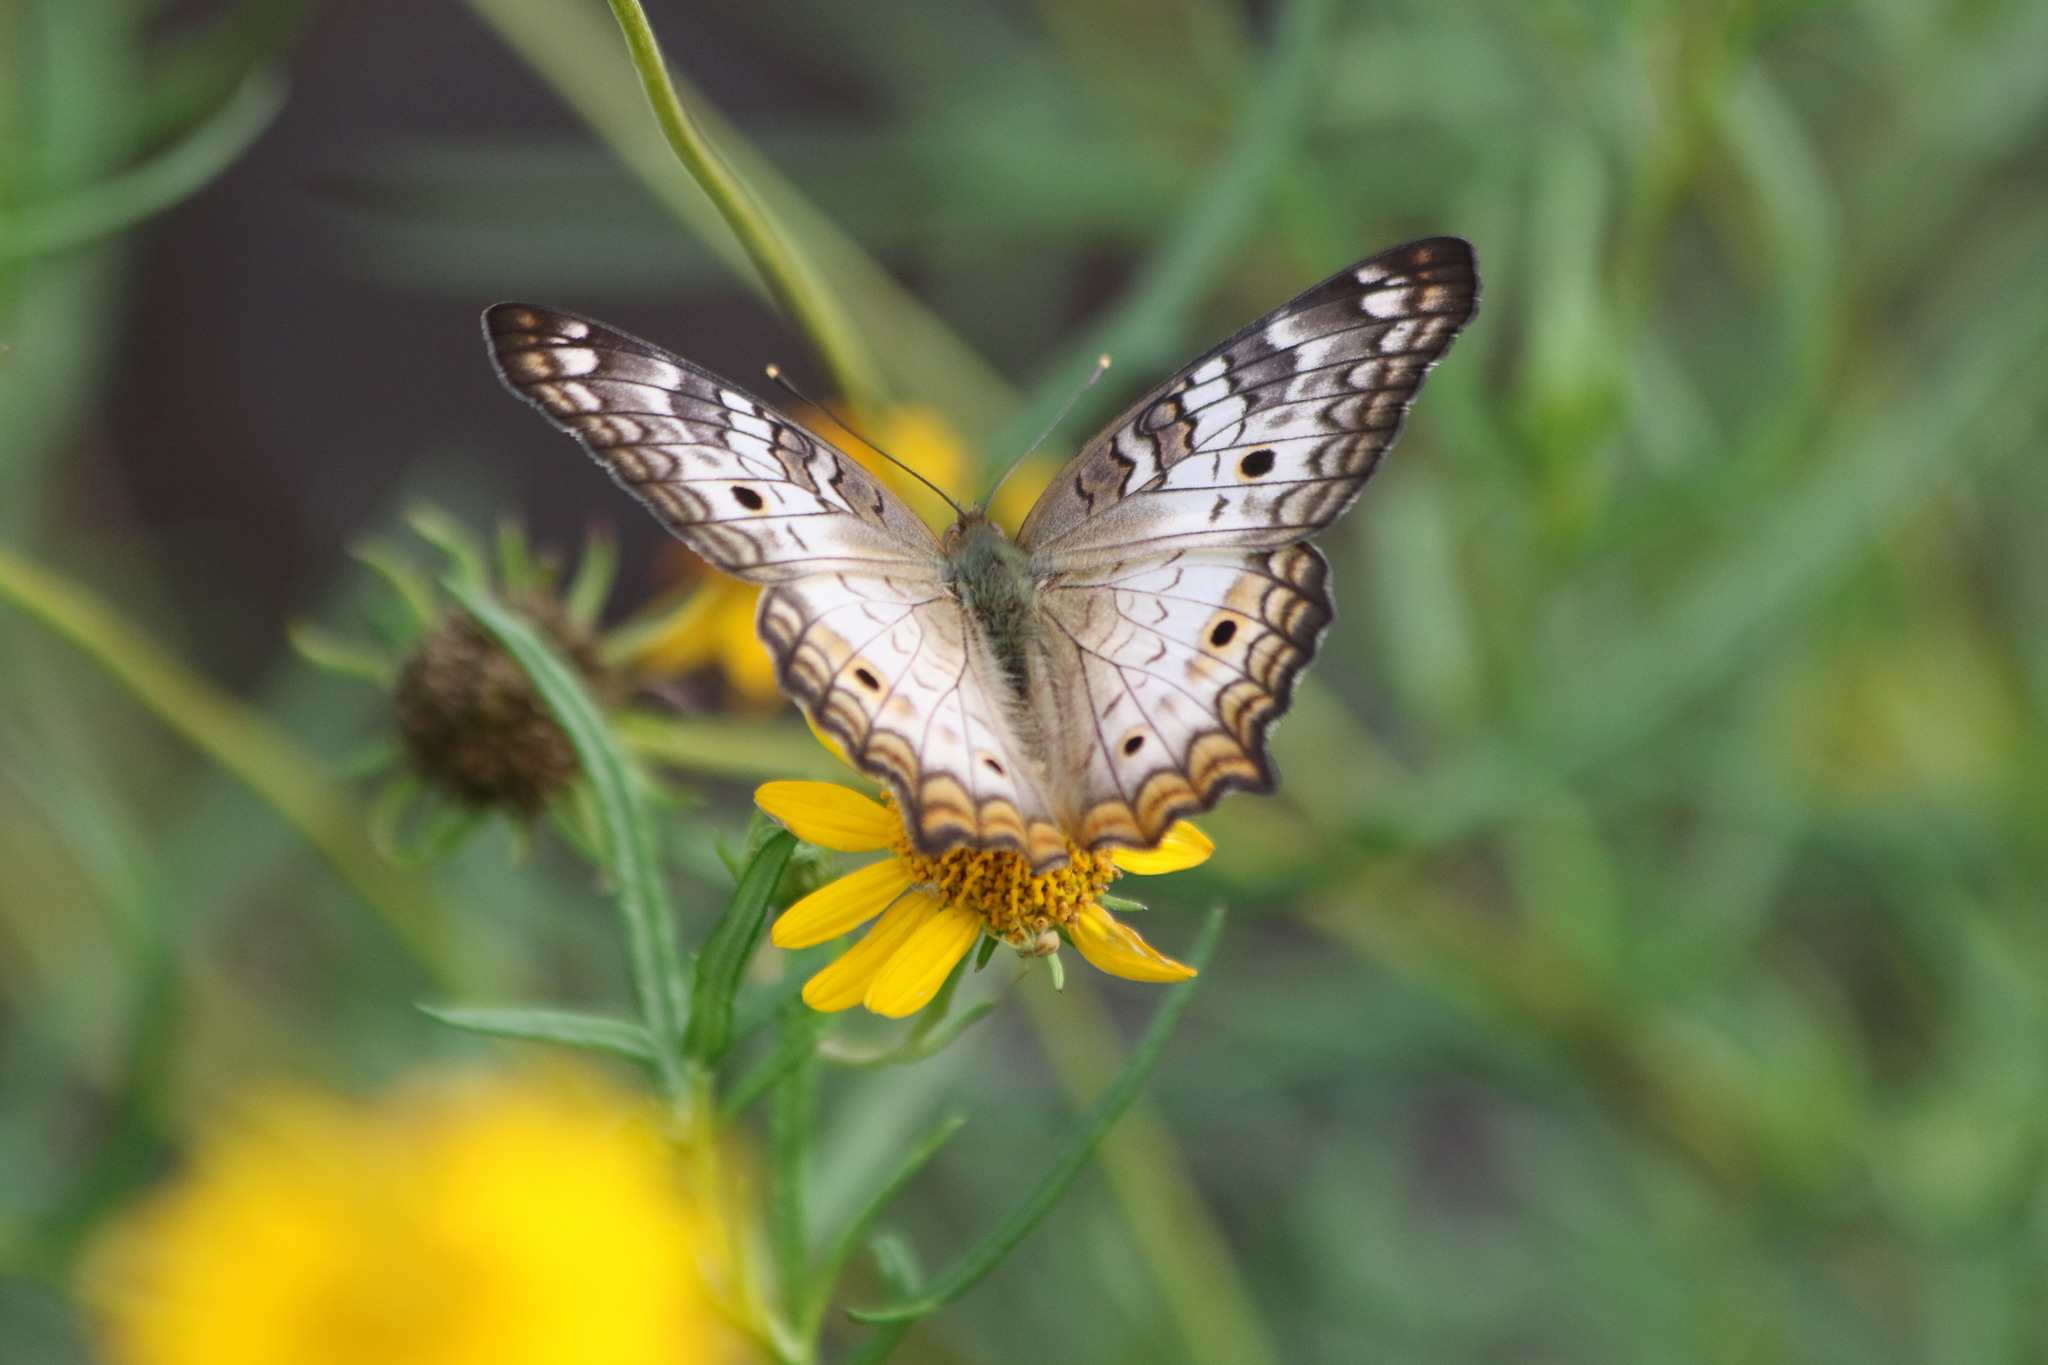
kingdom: Animalia
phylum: Arthropoda
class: Insecta
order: Lepidoptera
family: Nymphalidae
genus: Anartia
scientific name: Anartia jatrophae
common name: White peacock
